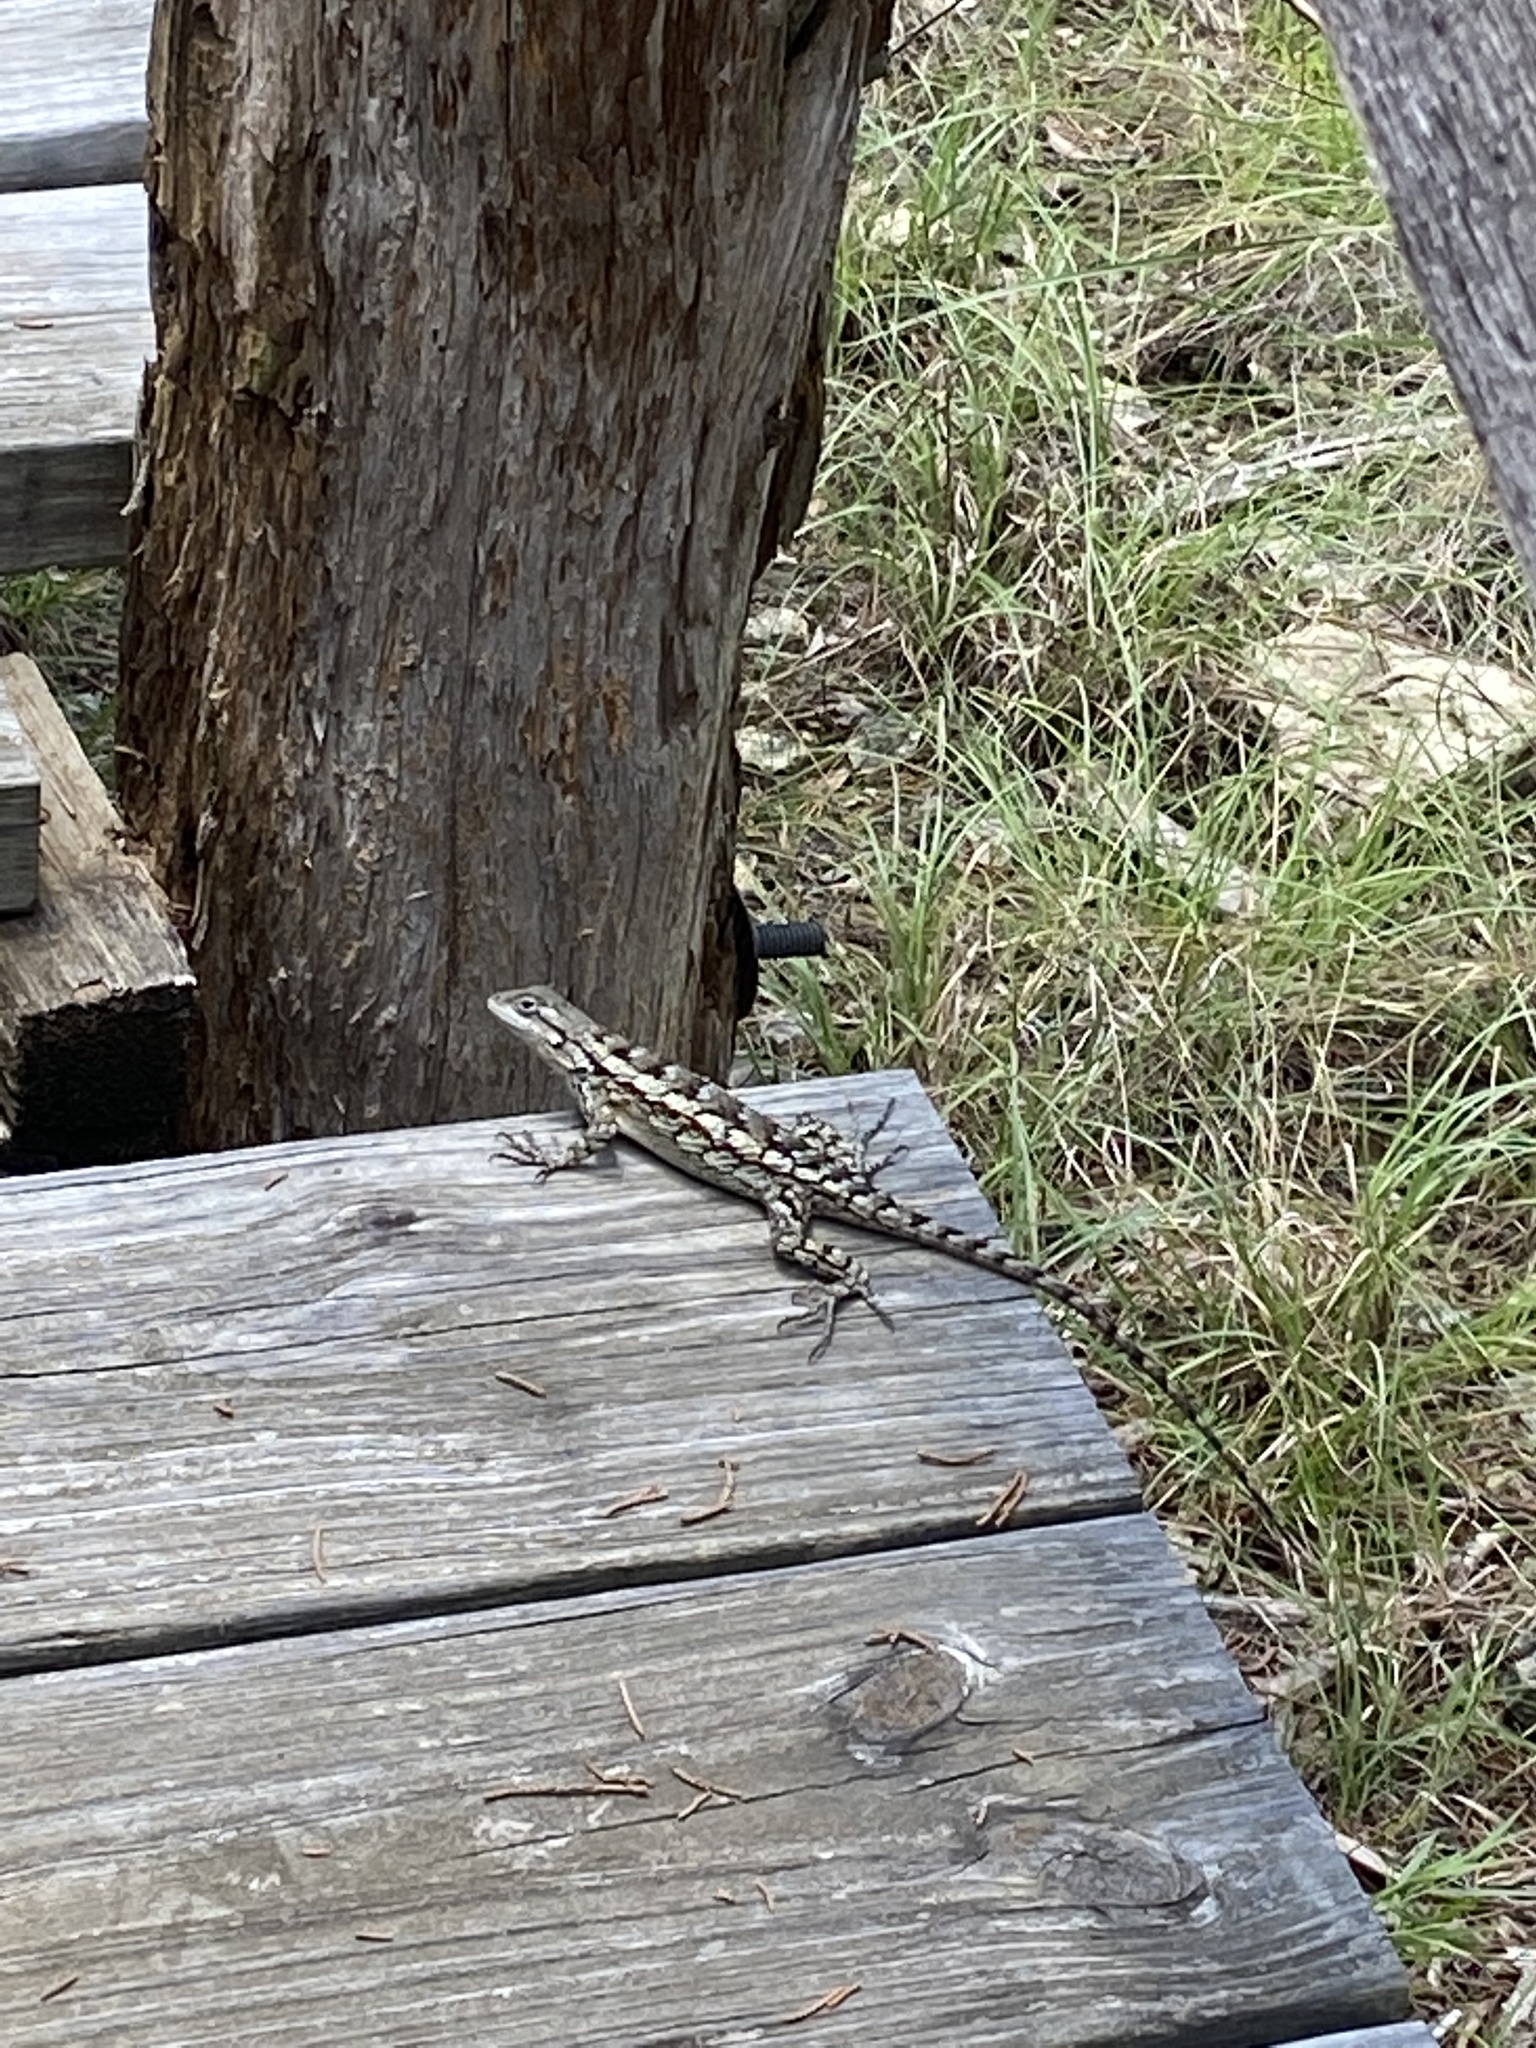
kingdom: Animalia
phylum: Chordata
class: Squamata
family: Phrynosomatidae
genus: Sceloporus
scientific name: Sceloporus olivaceus
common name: Texas spiny lizard
